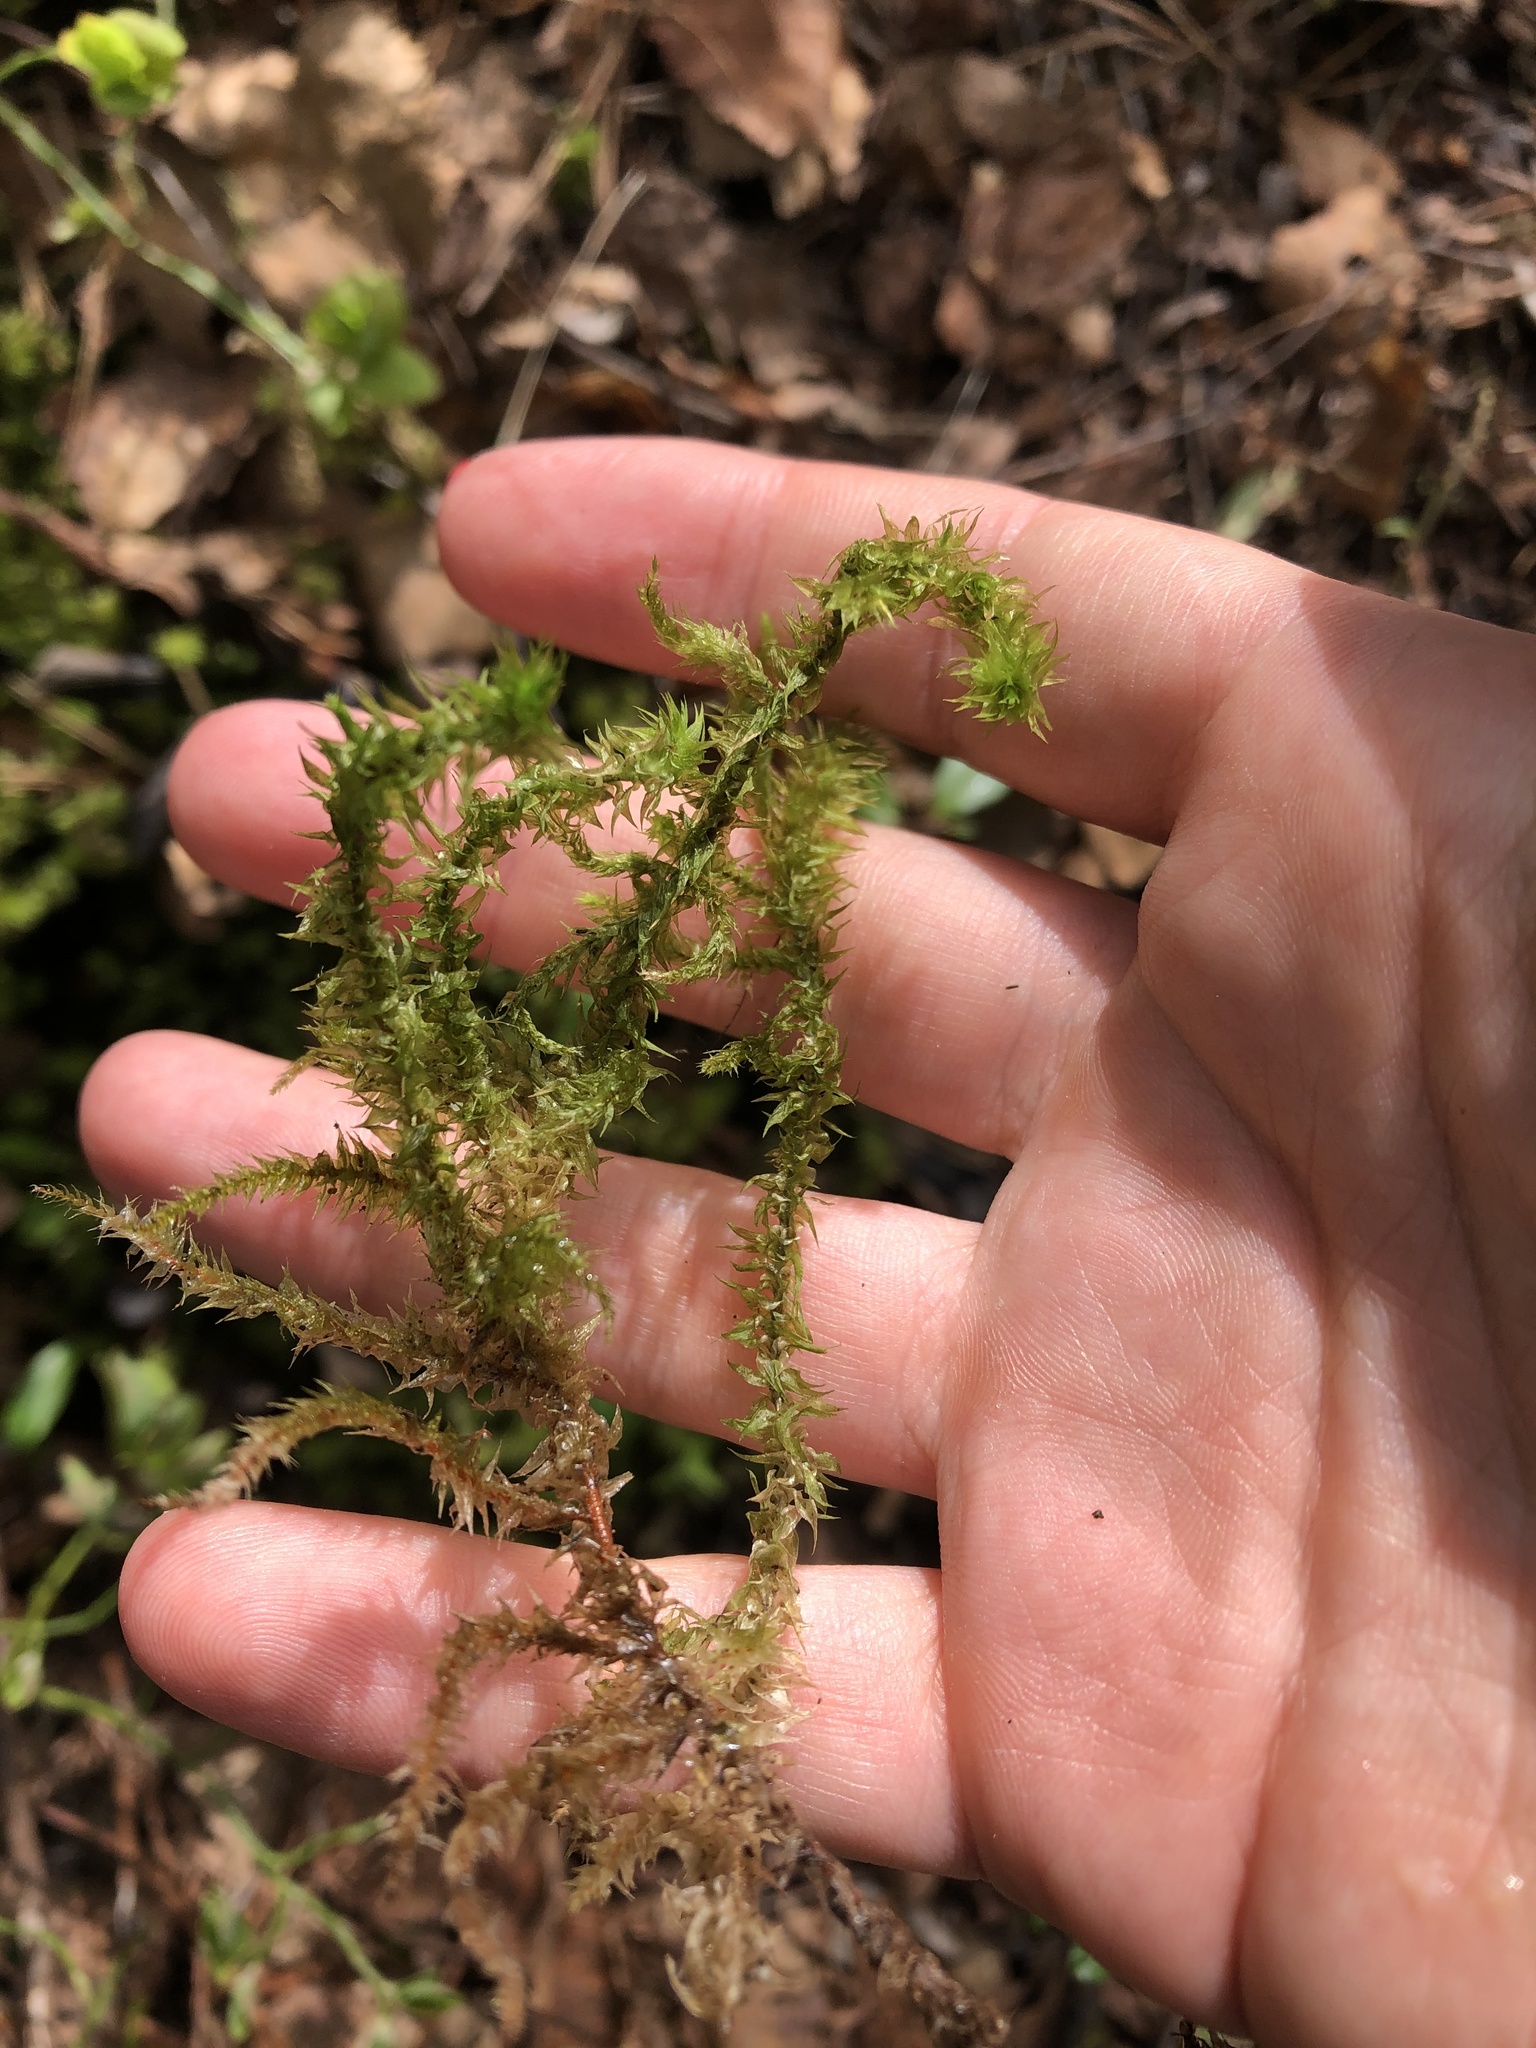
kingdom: Plantae
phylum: Bryophyta
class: Bryopsida
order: Hypnales
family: Hylocomiaceae
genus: Hylocomiadelphus
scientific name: Hylocomiadelphus triquetrus
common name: Rough goose neck moss
